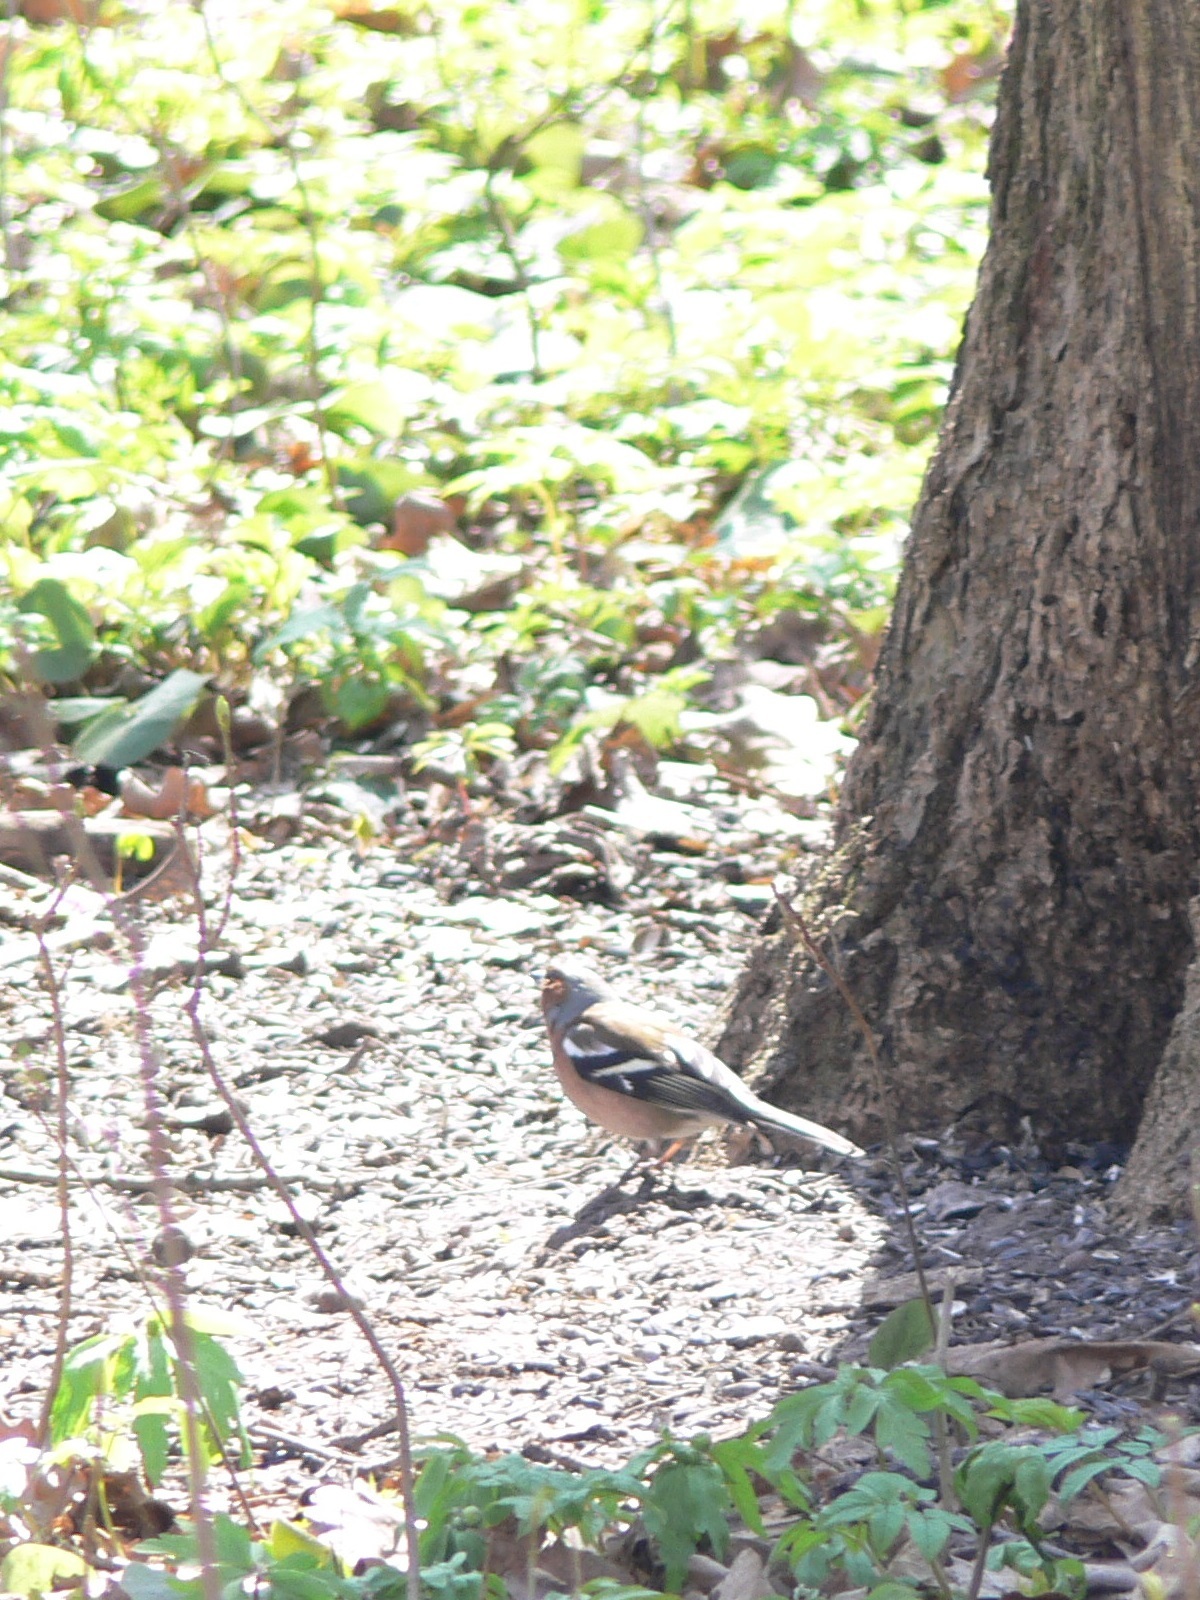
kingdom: Animalia
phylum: Chordata
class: Aves
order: Passeriformes
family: Fringillidae
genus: Fringilla
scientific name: Fringilla coelebs
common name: Common chaffinch
